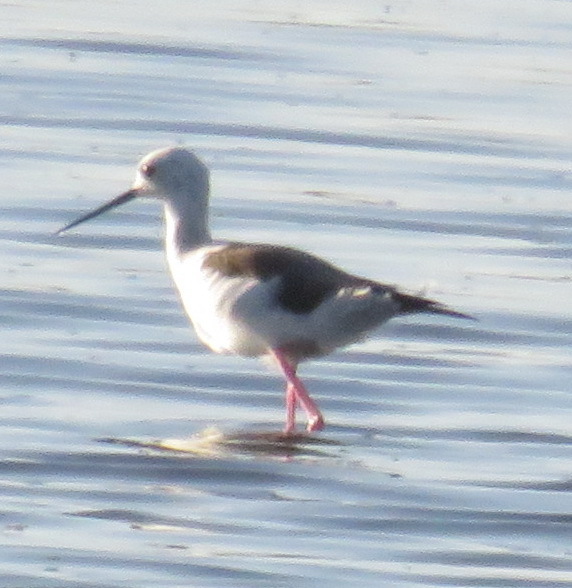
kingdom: Animalia
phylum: Chordata
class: Aves
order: Charadriiformes
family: Recurvirostridae
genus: Himantopus
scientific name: Himantopus himantopus
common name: Black-winged stilt
